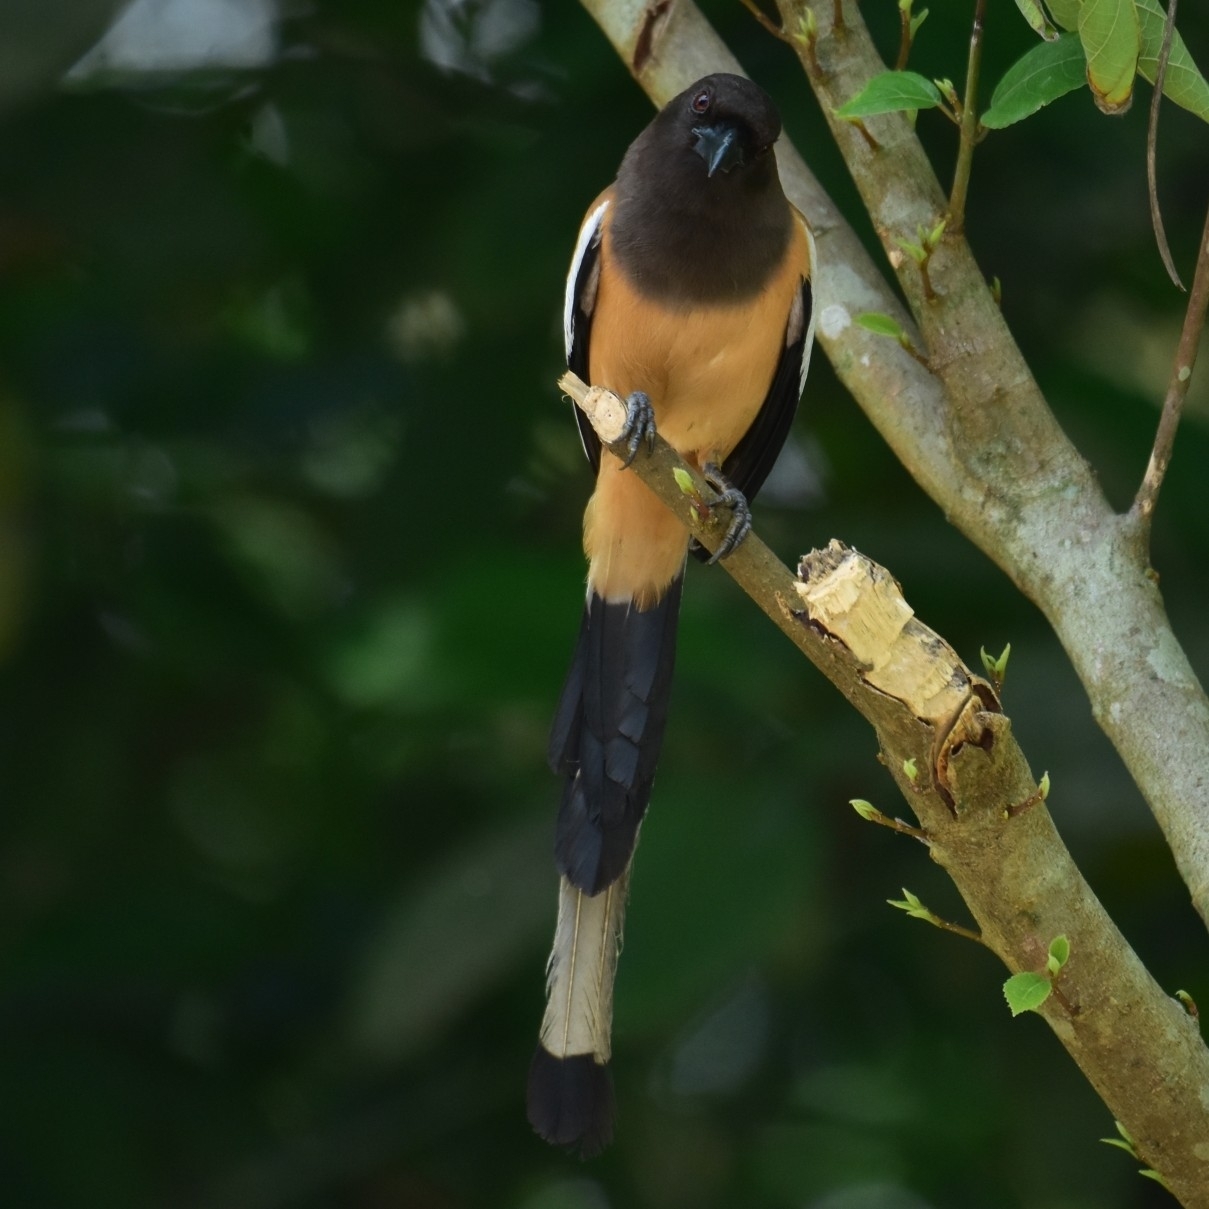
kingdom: Animalia
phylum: Chordata
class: Aves
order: Passeriformes
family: Corvidae
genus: Dendrocitta
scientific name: Dendrocitta vagabunda
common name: Rufous treepie
